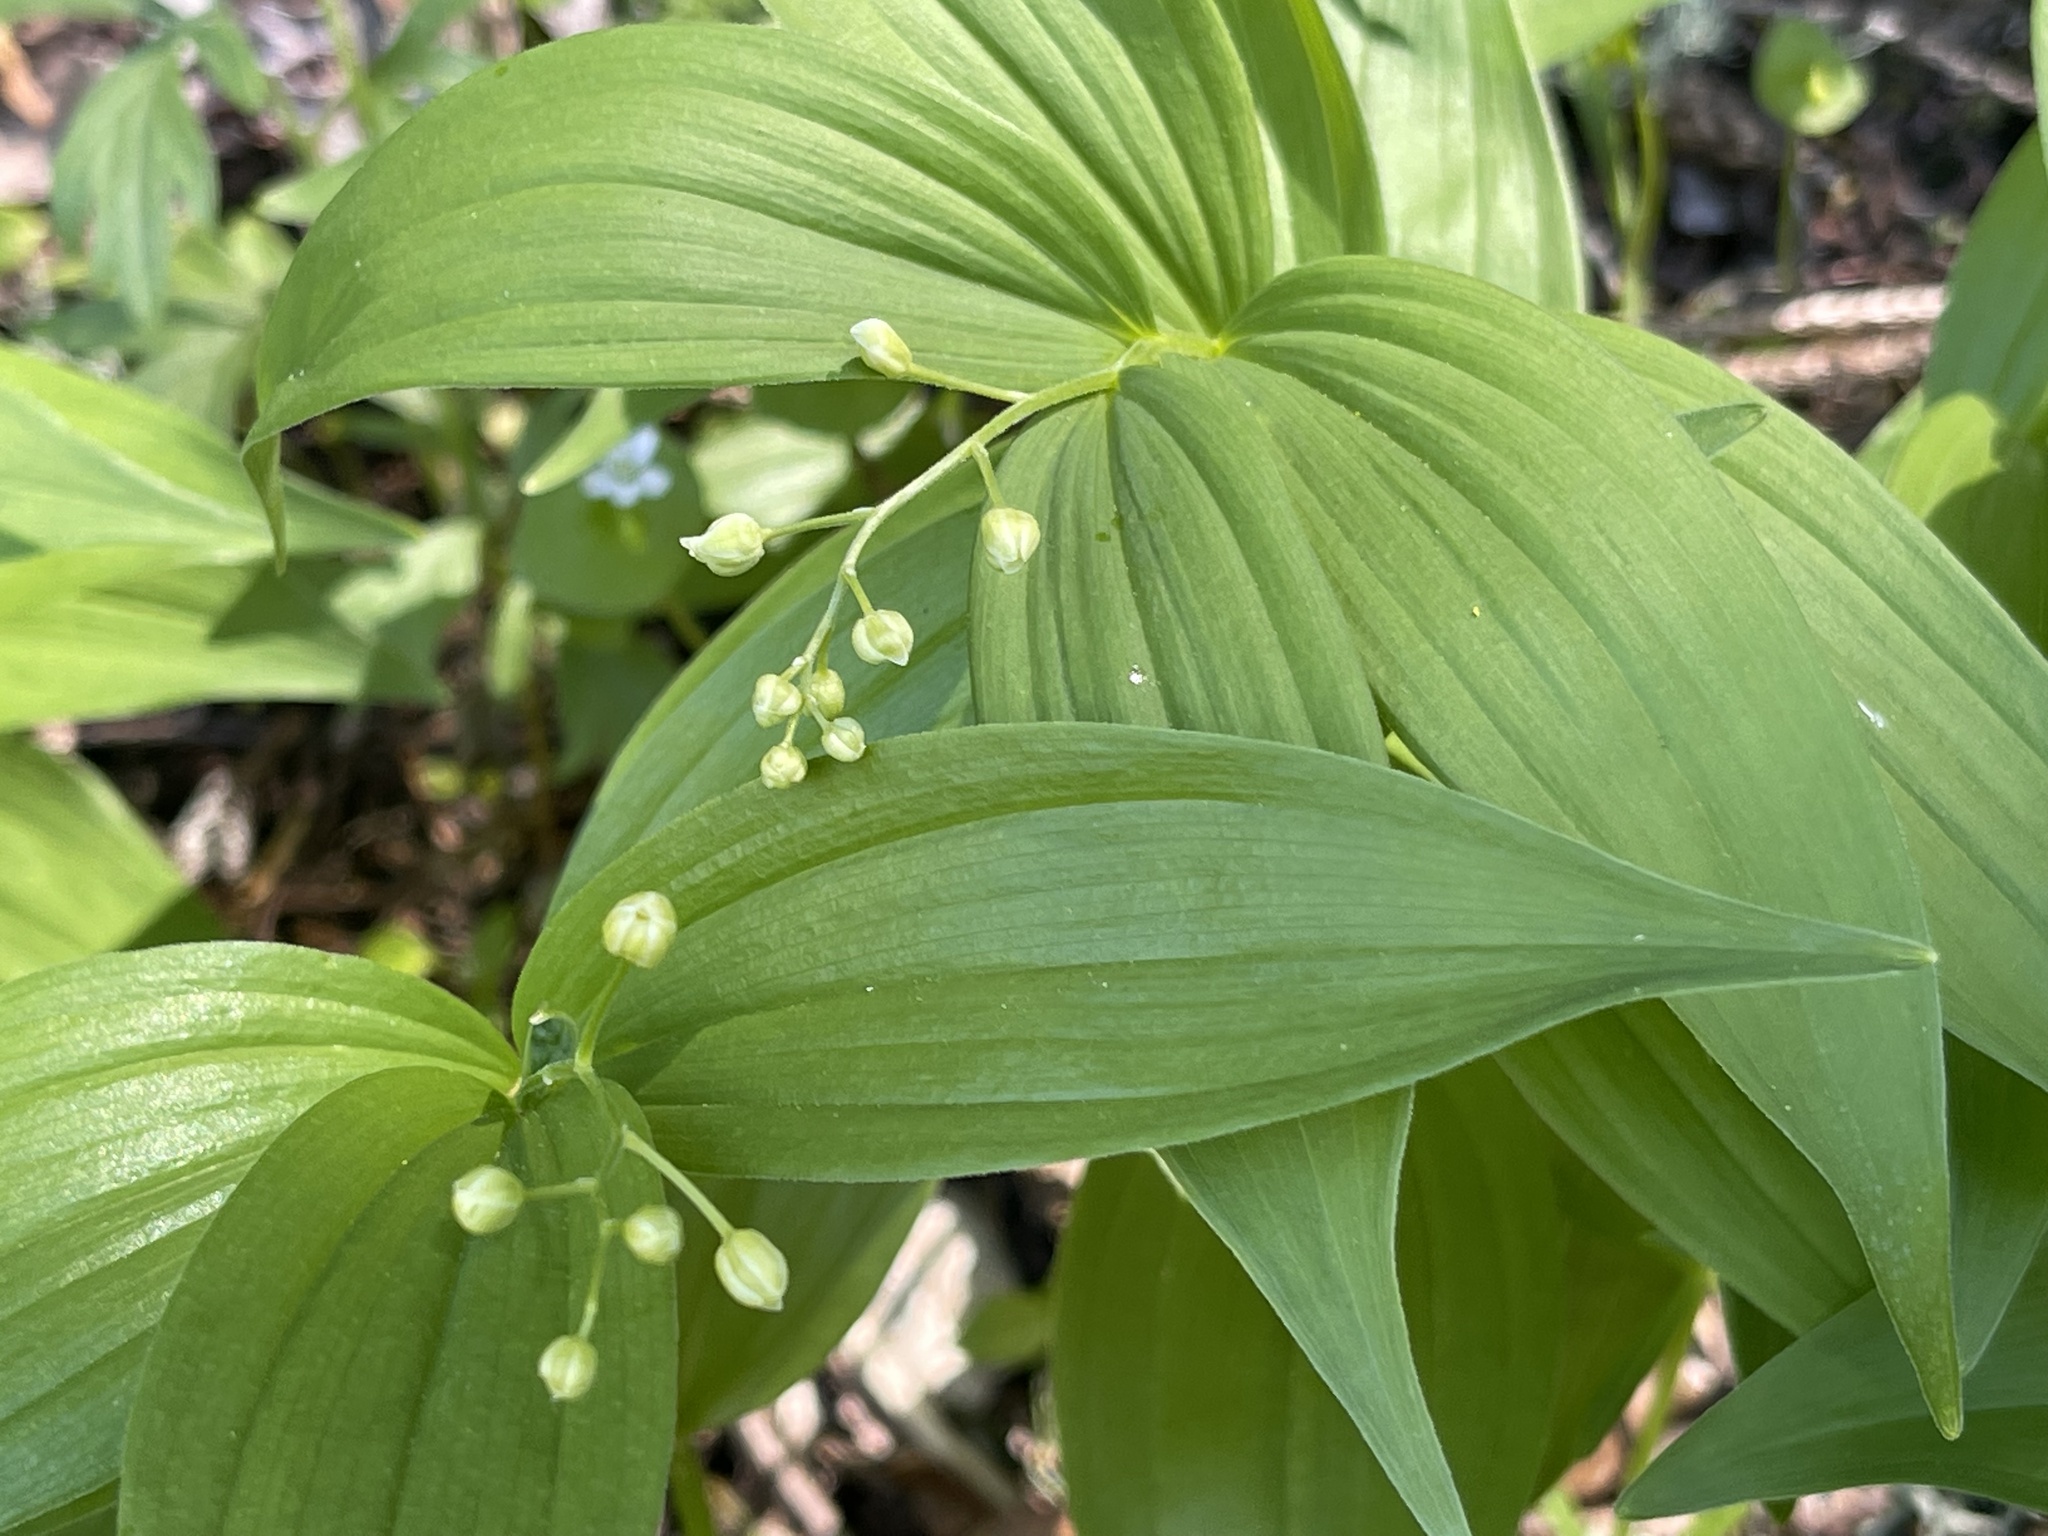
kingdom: Plantae
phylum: Tracheophyta
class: Liliopsida
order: Asparagales
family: Asparagaceae
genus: Maianthemum
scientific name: Maianthemum stellatum
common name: Little false solomon's seal
